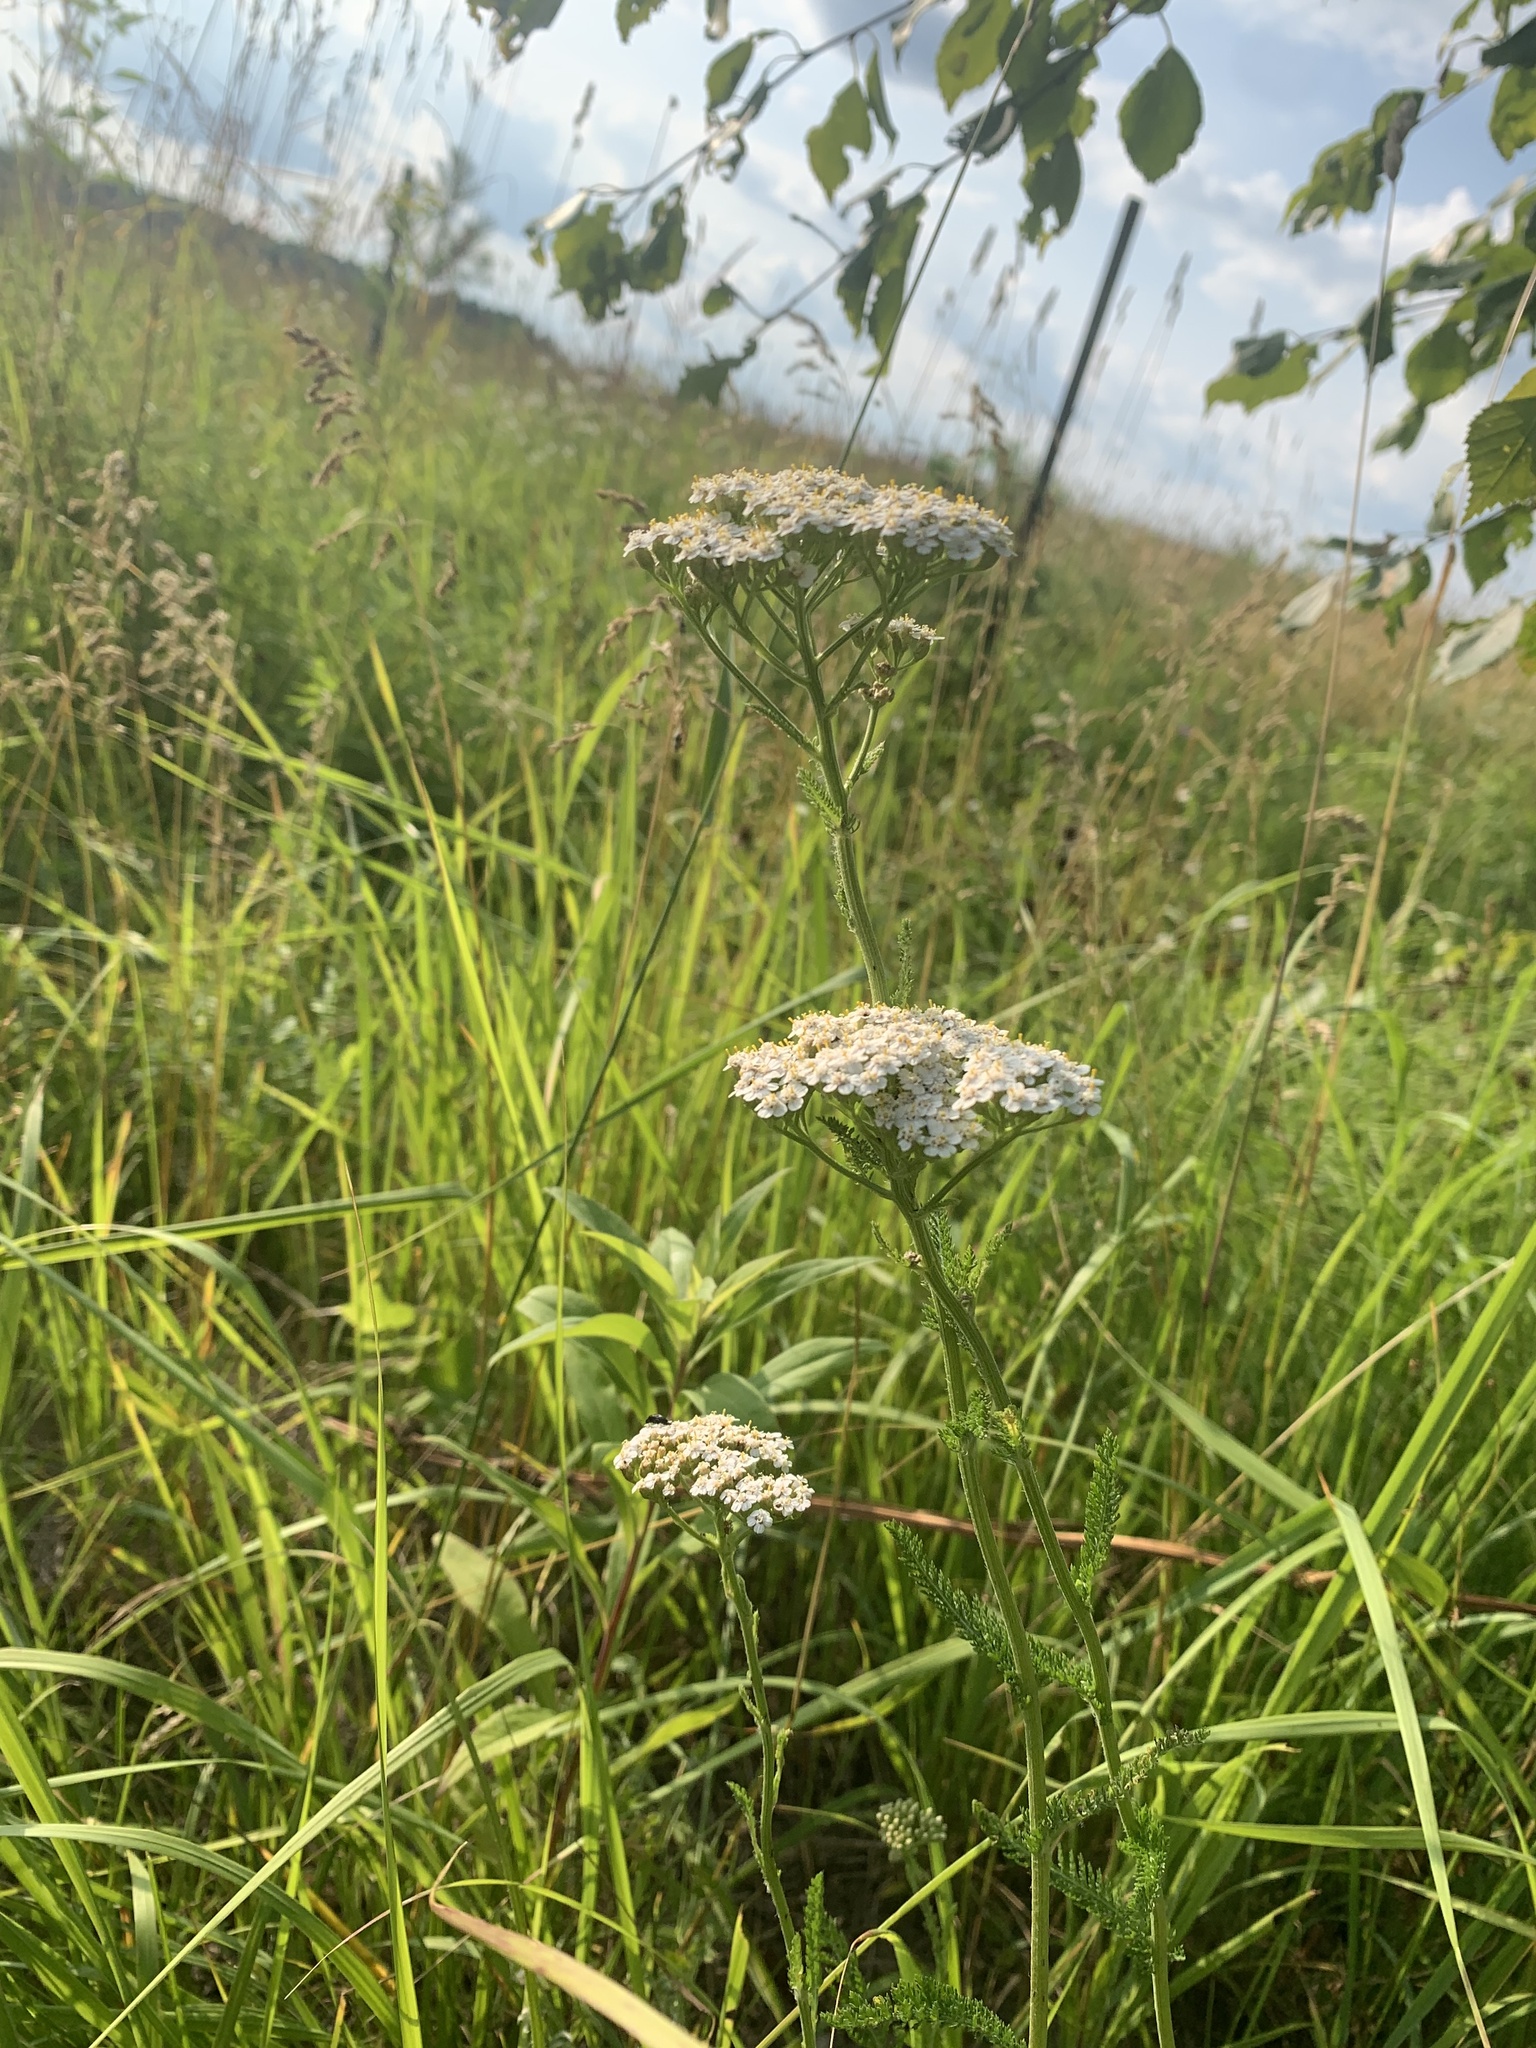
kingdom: Plantae
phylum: Tracheophyta
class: Magnoliopsida
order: Asterales
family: Asteraceae
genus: Achillea
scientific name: Achillea millefolium
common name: Yarrow
